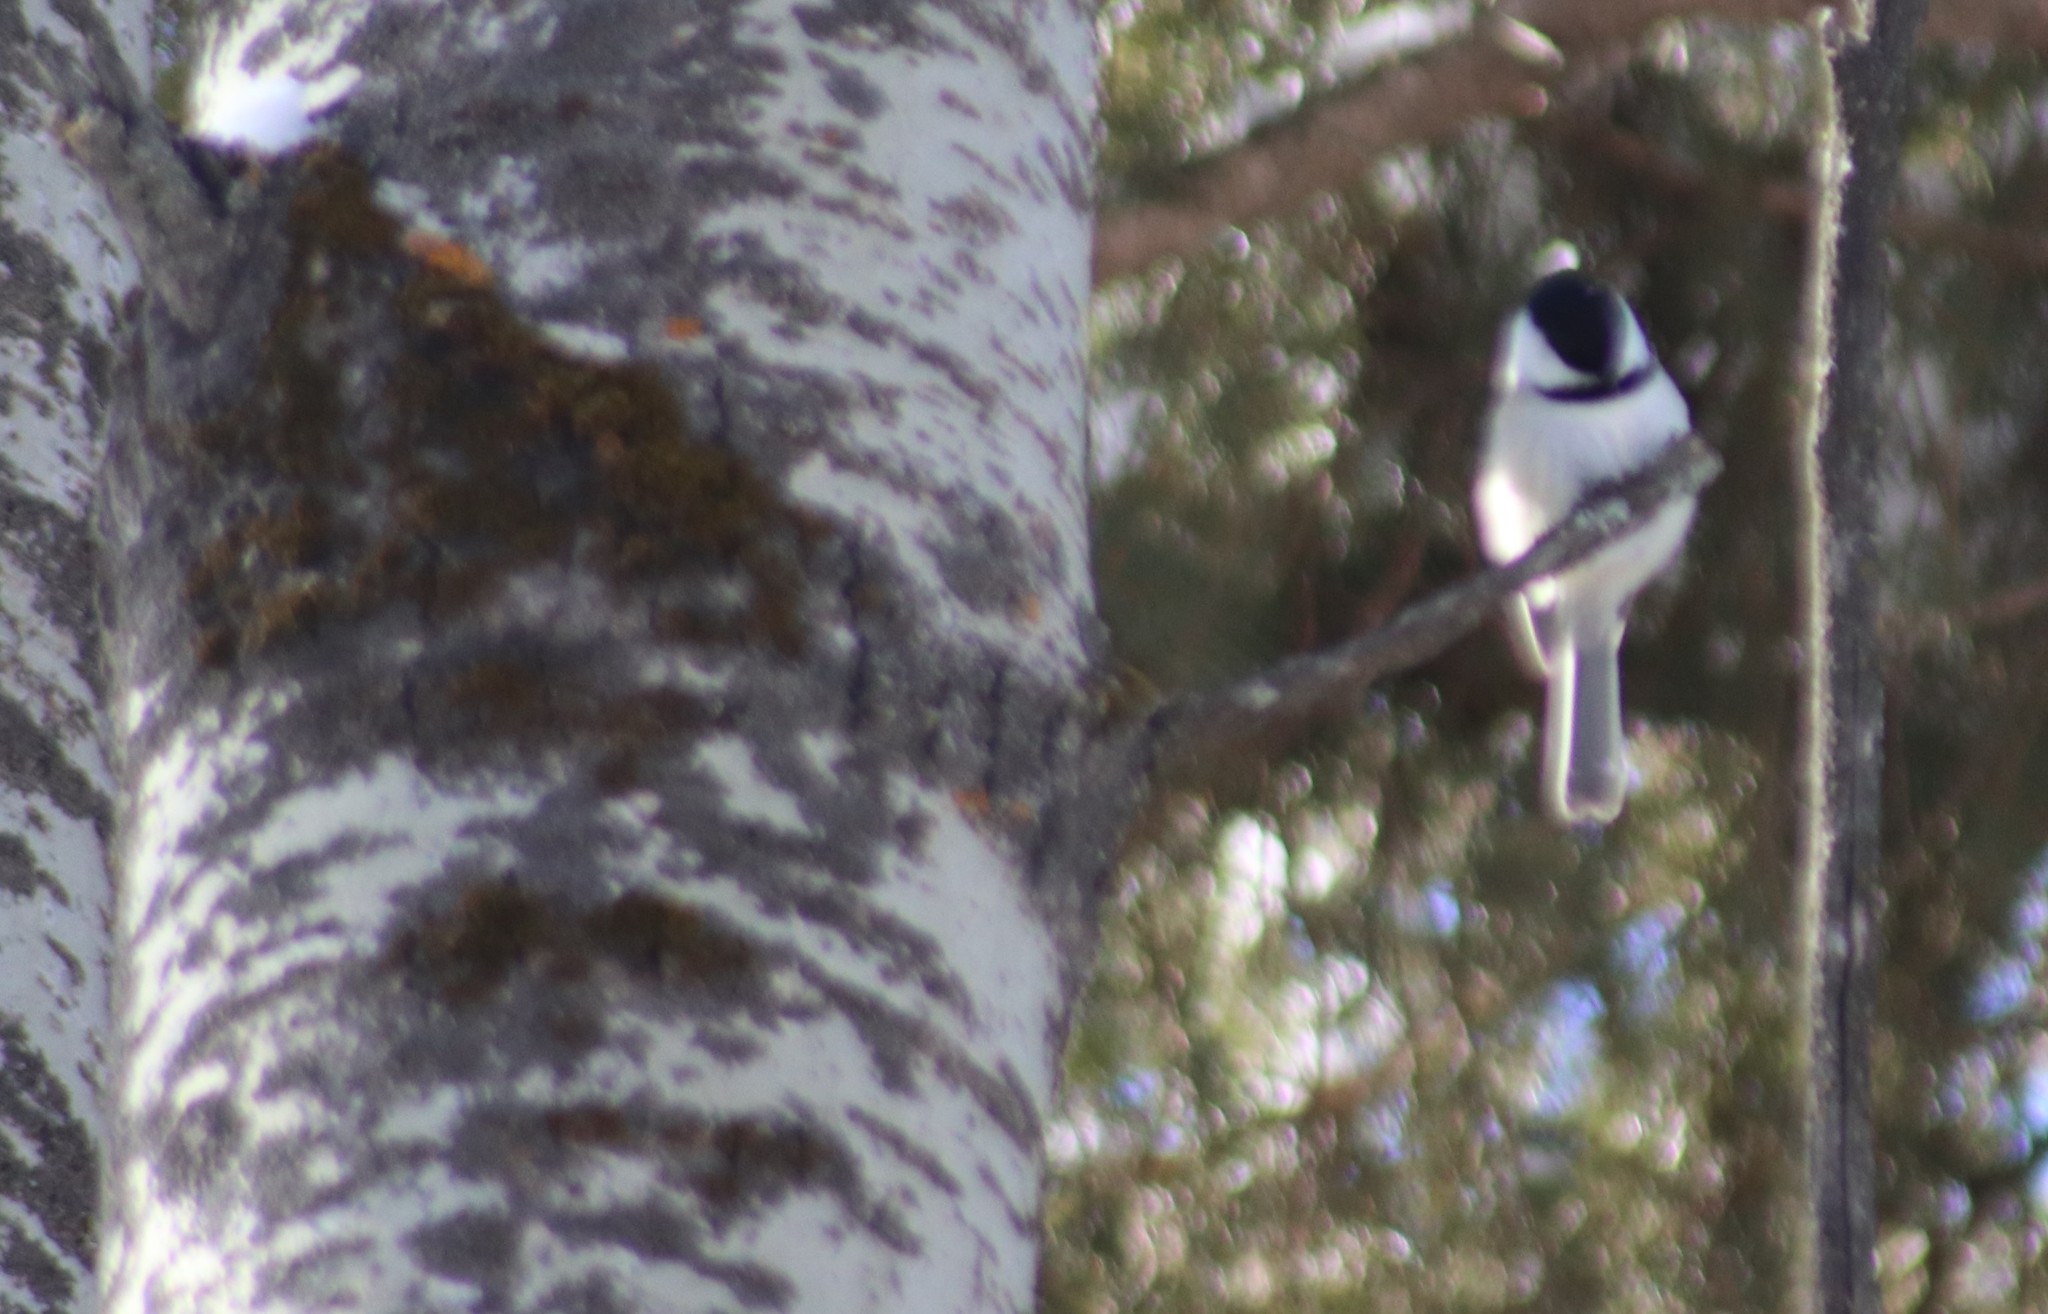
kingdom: Animalia
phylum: Chordata
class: Aves
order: Passeriformes
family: Paridae
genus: Poecile
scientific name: Poecile atricapillus
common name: Black-capped chickadee
